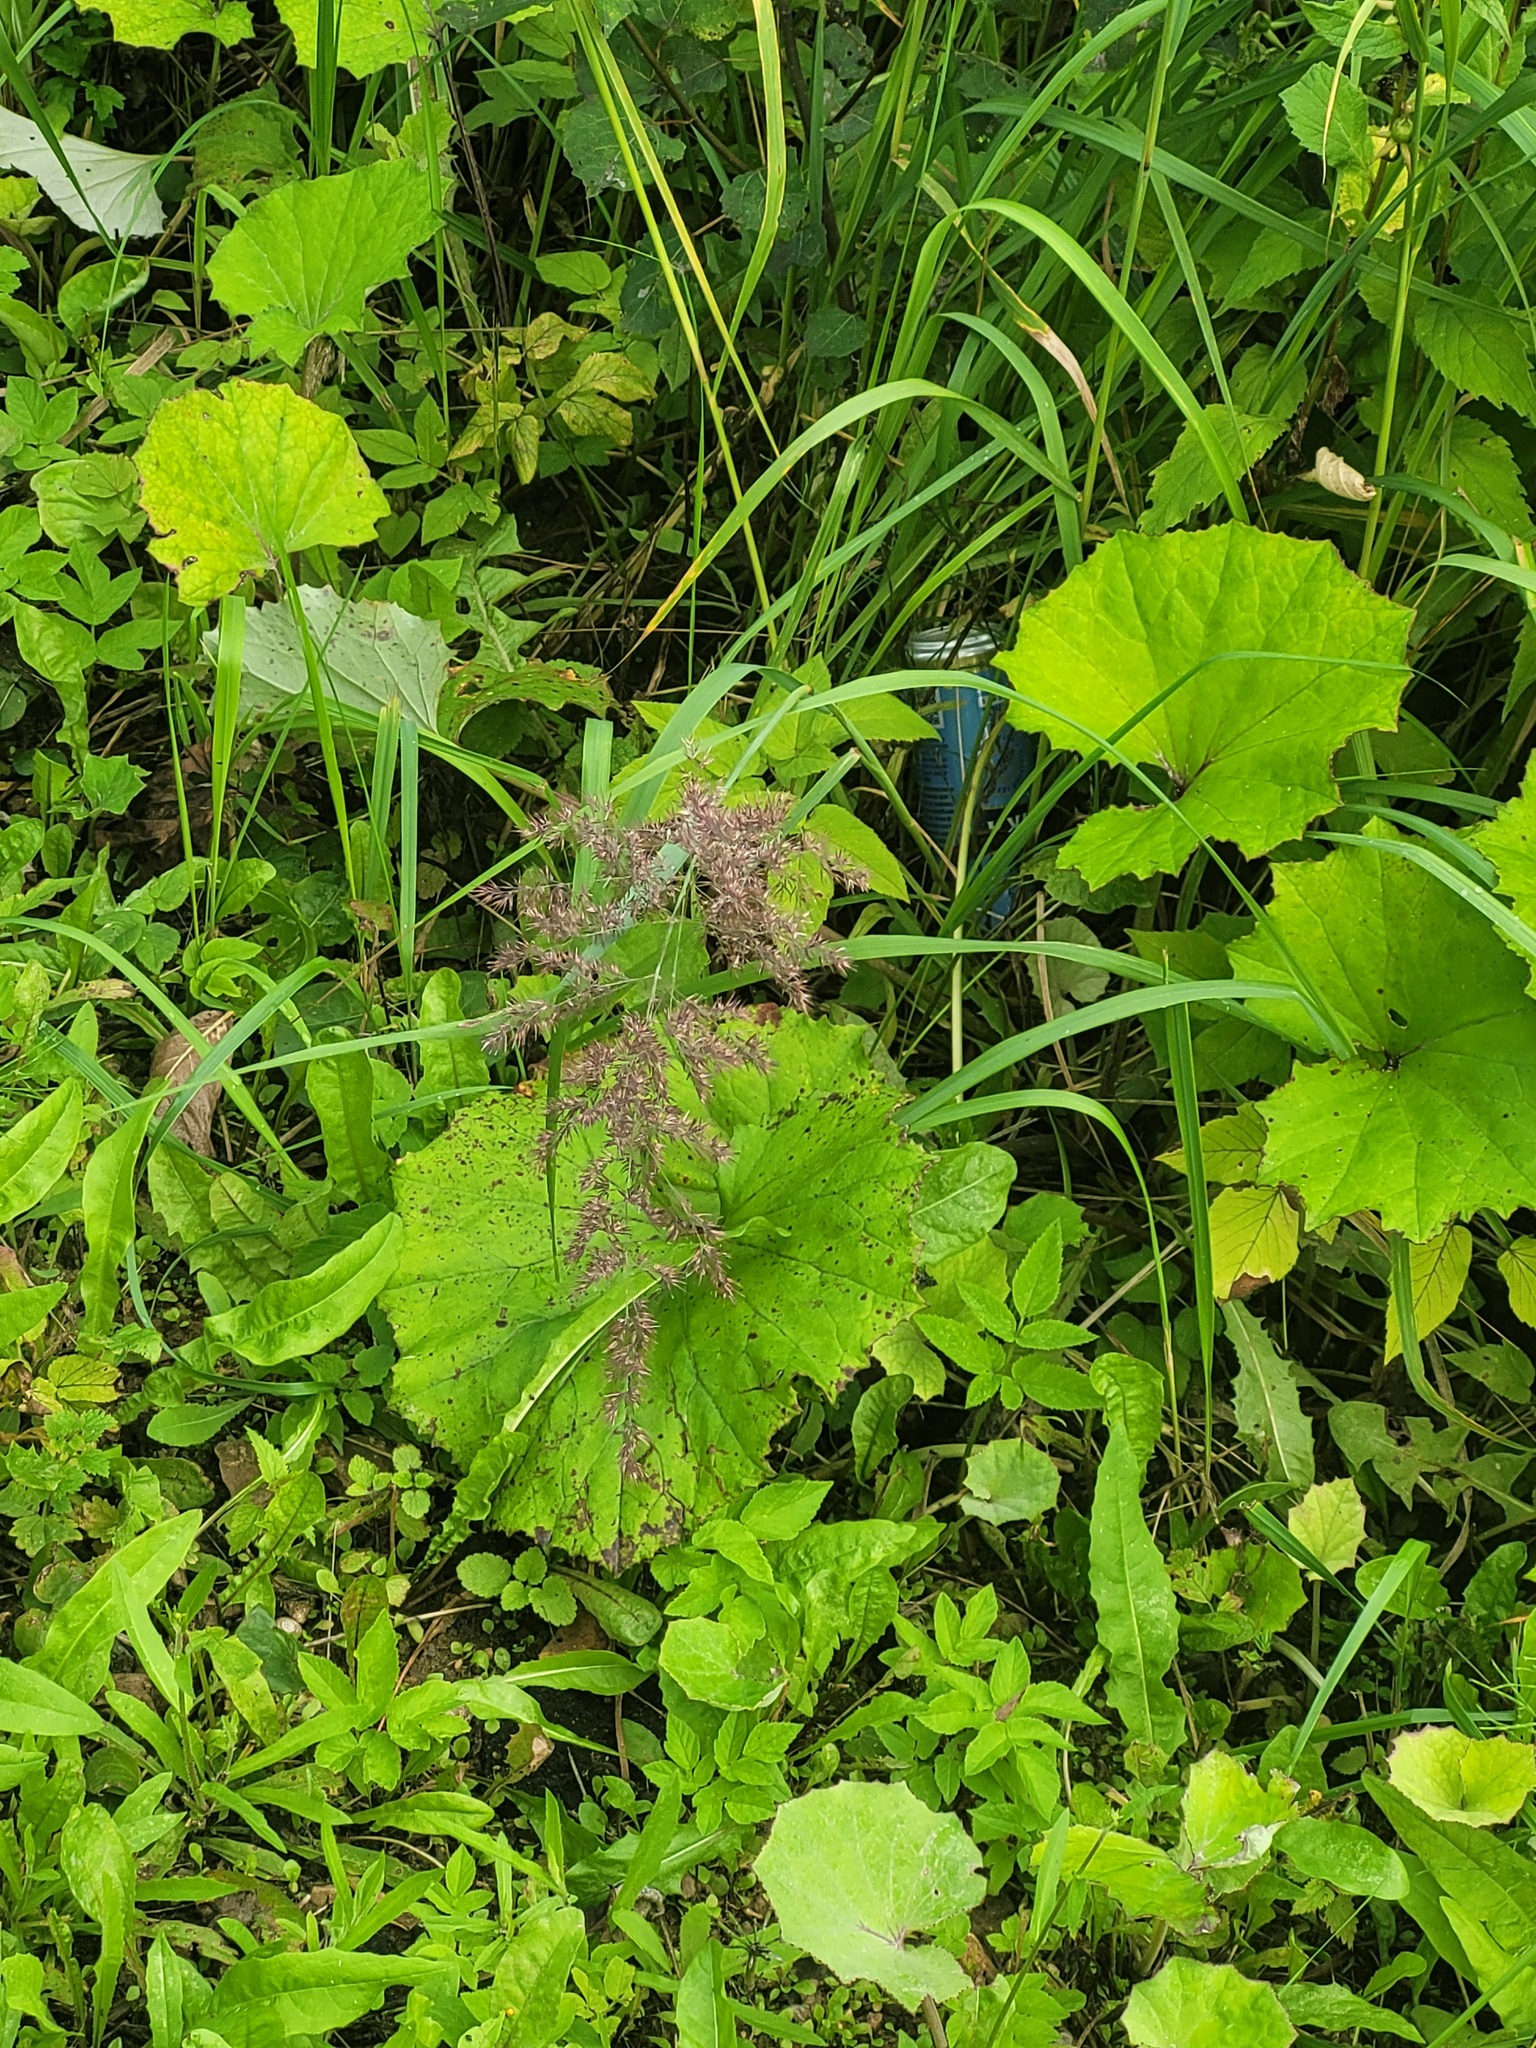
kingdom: Plantae
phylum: Tracheophyta
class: Liliopsida
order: Poales
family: Poaceae
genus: Calamagrostis
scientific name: Calamagrostis epigejos
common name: Wood small-reed
